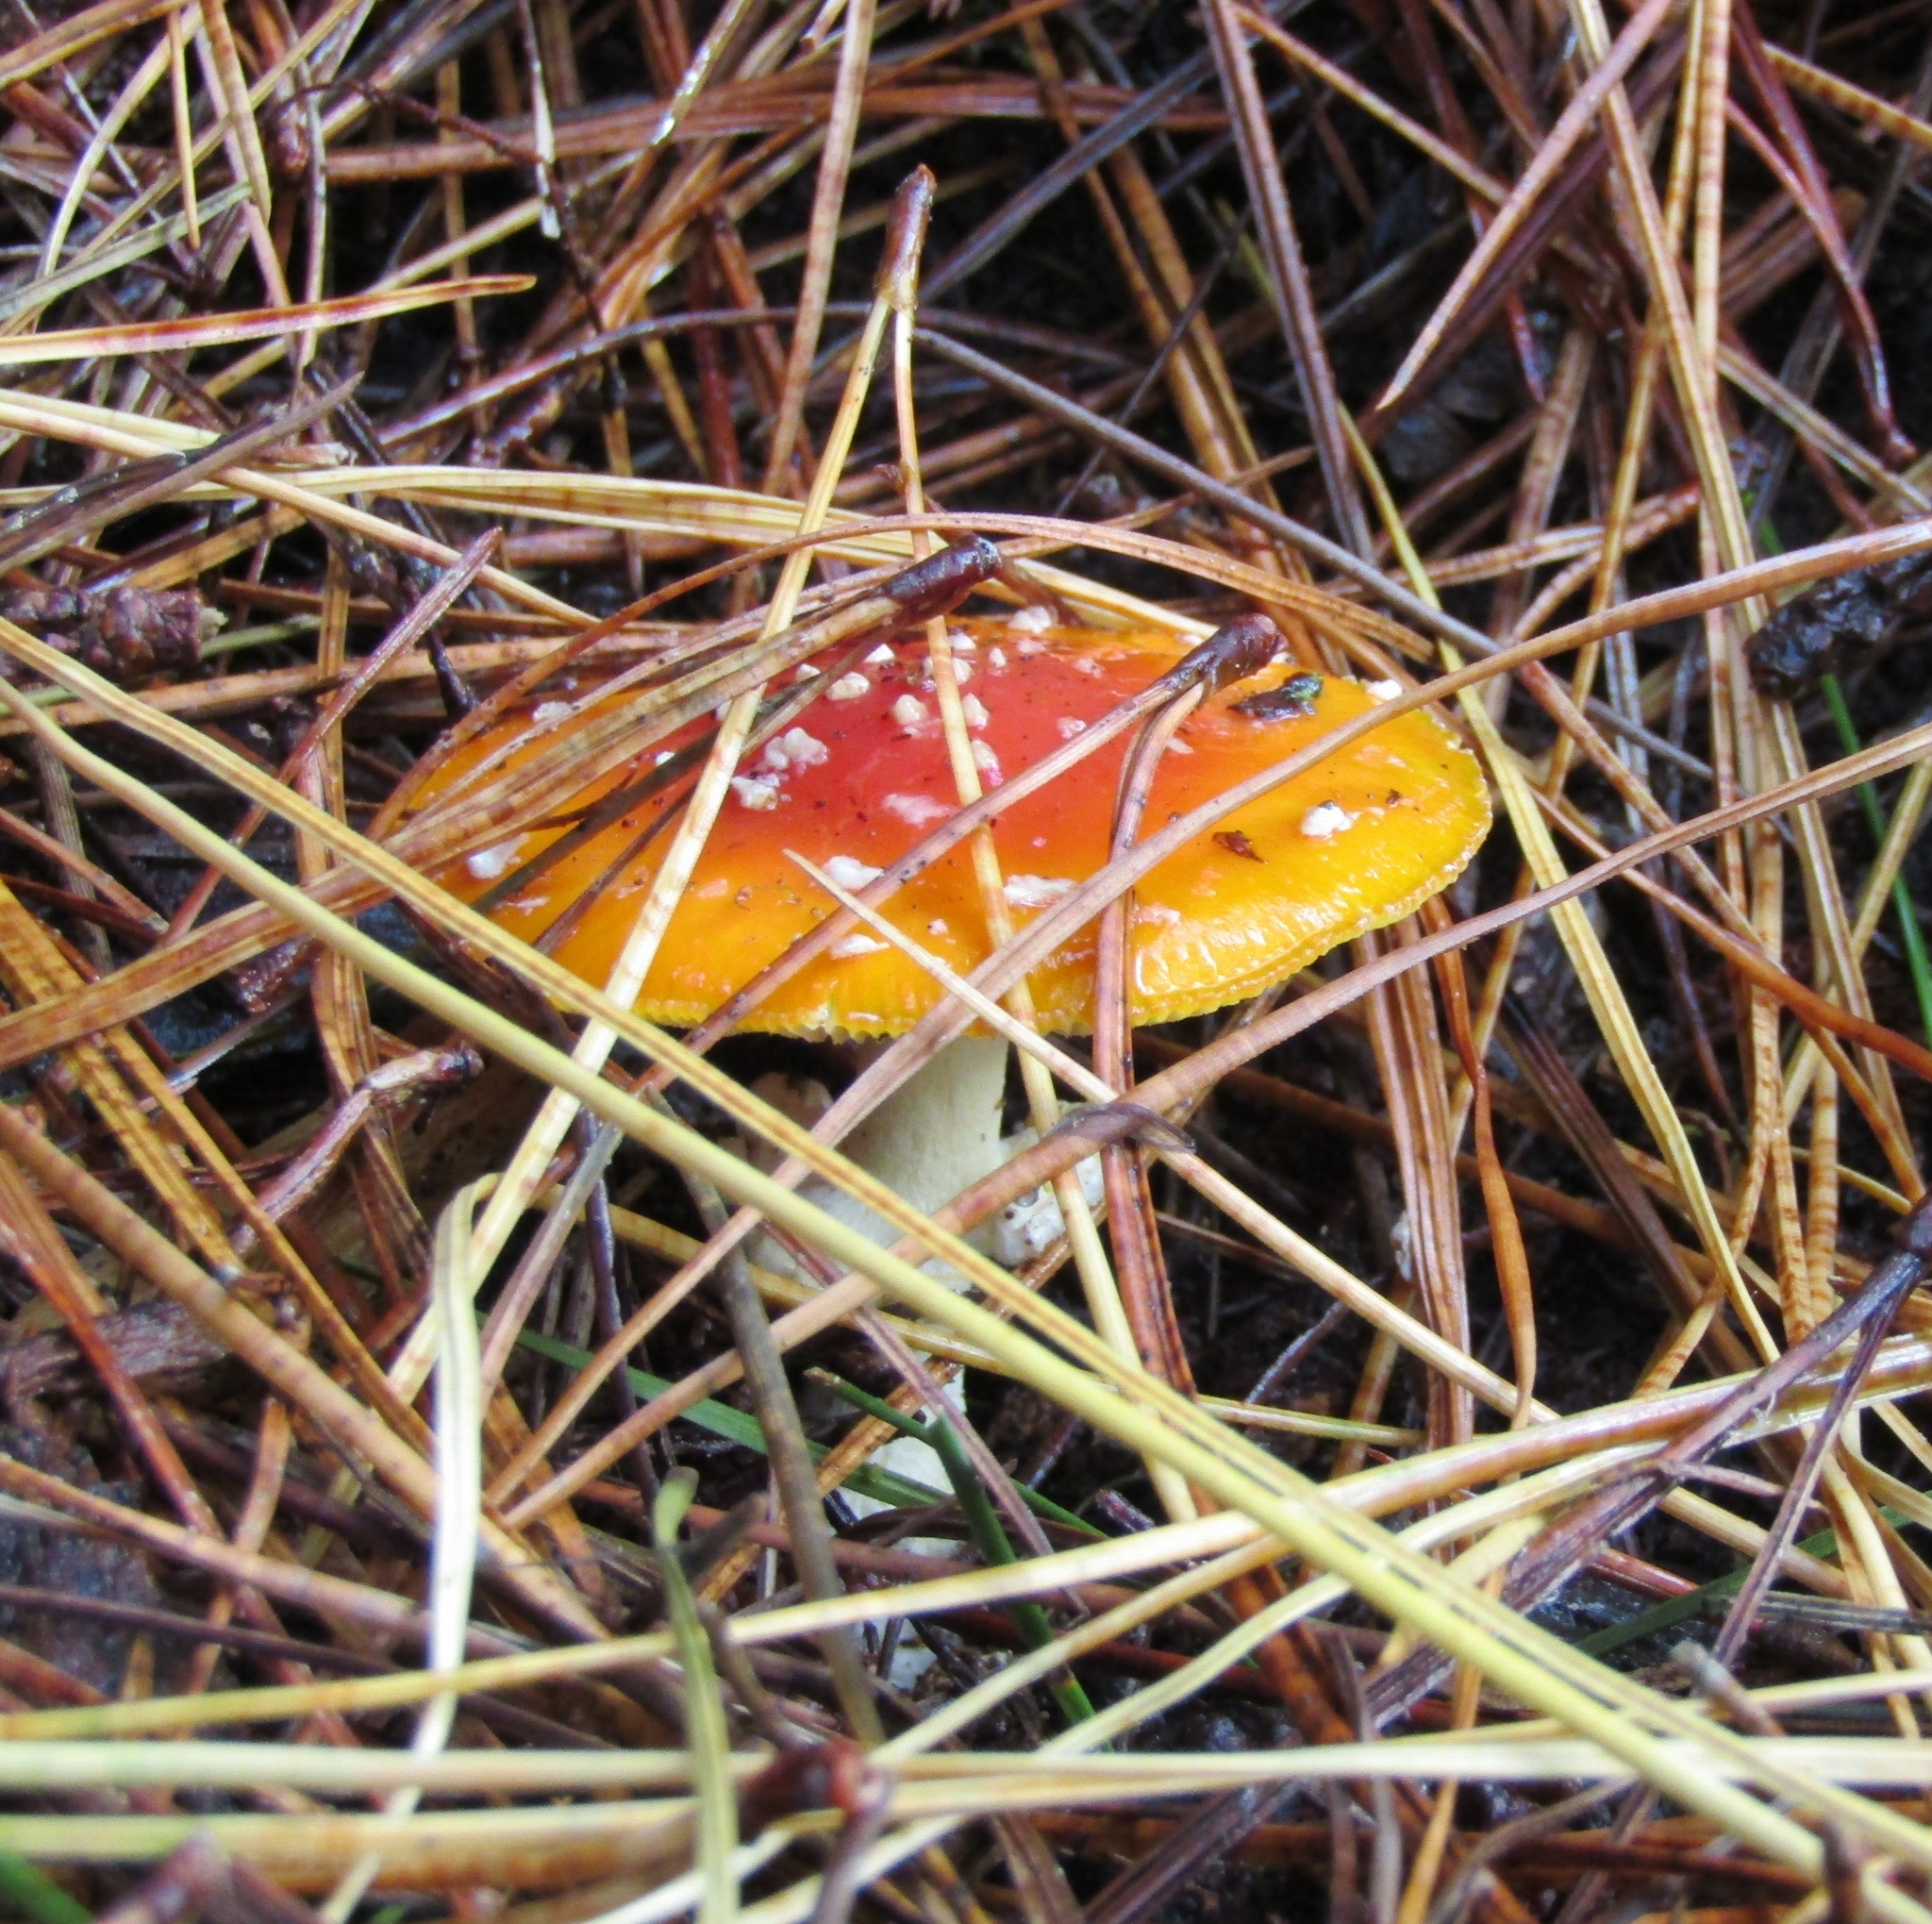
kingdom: Fungi
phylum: Basidiomycota
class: Agaricomycetes
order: Agaricales
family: Amanitaceae
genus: Amanita
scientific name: Amanita muscaria
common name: Fly agaric
